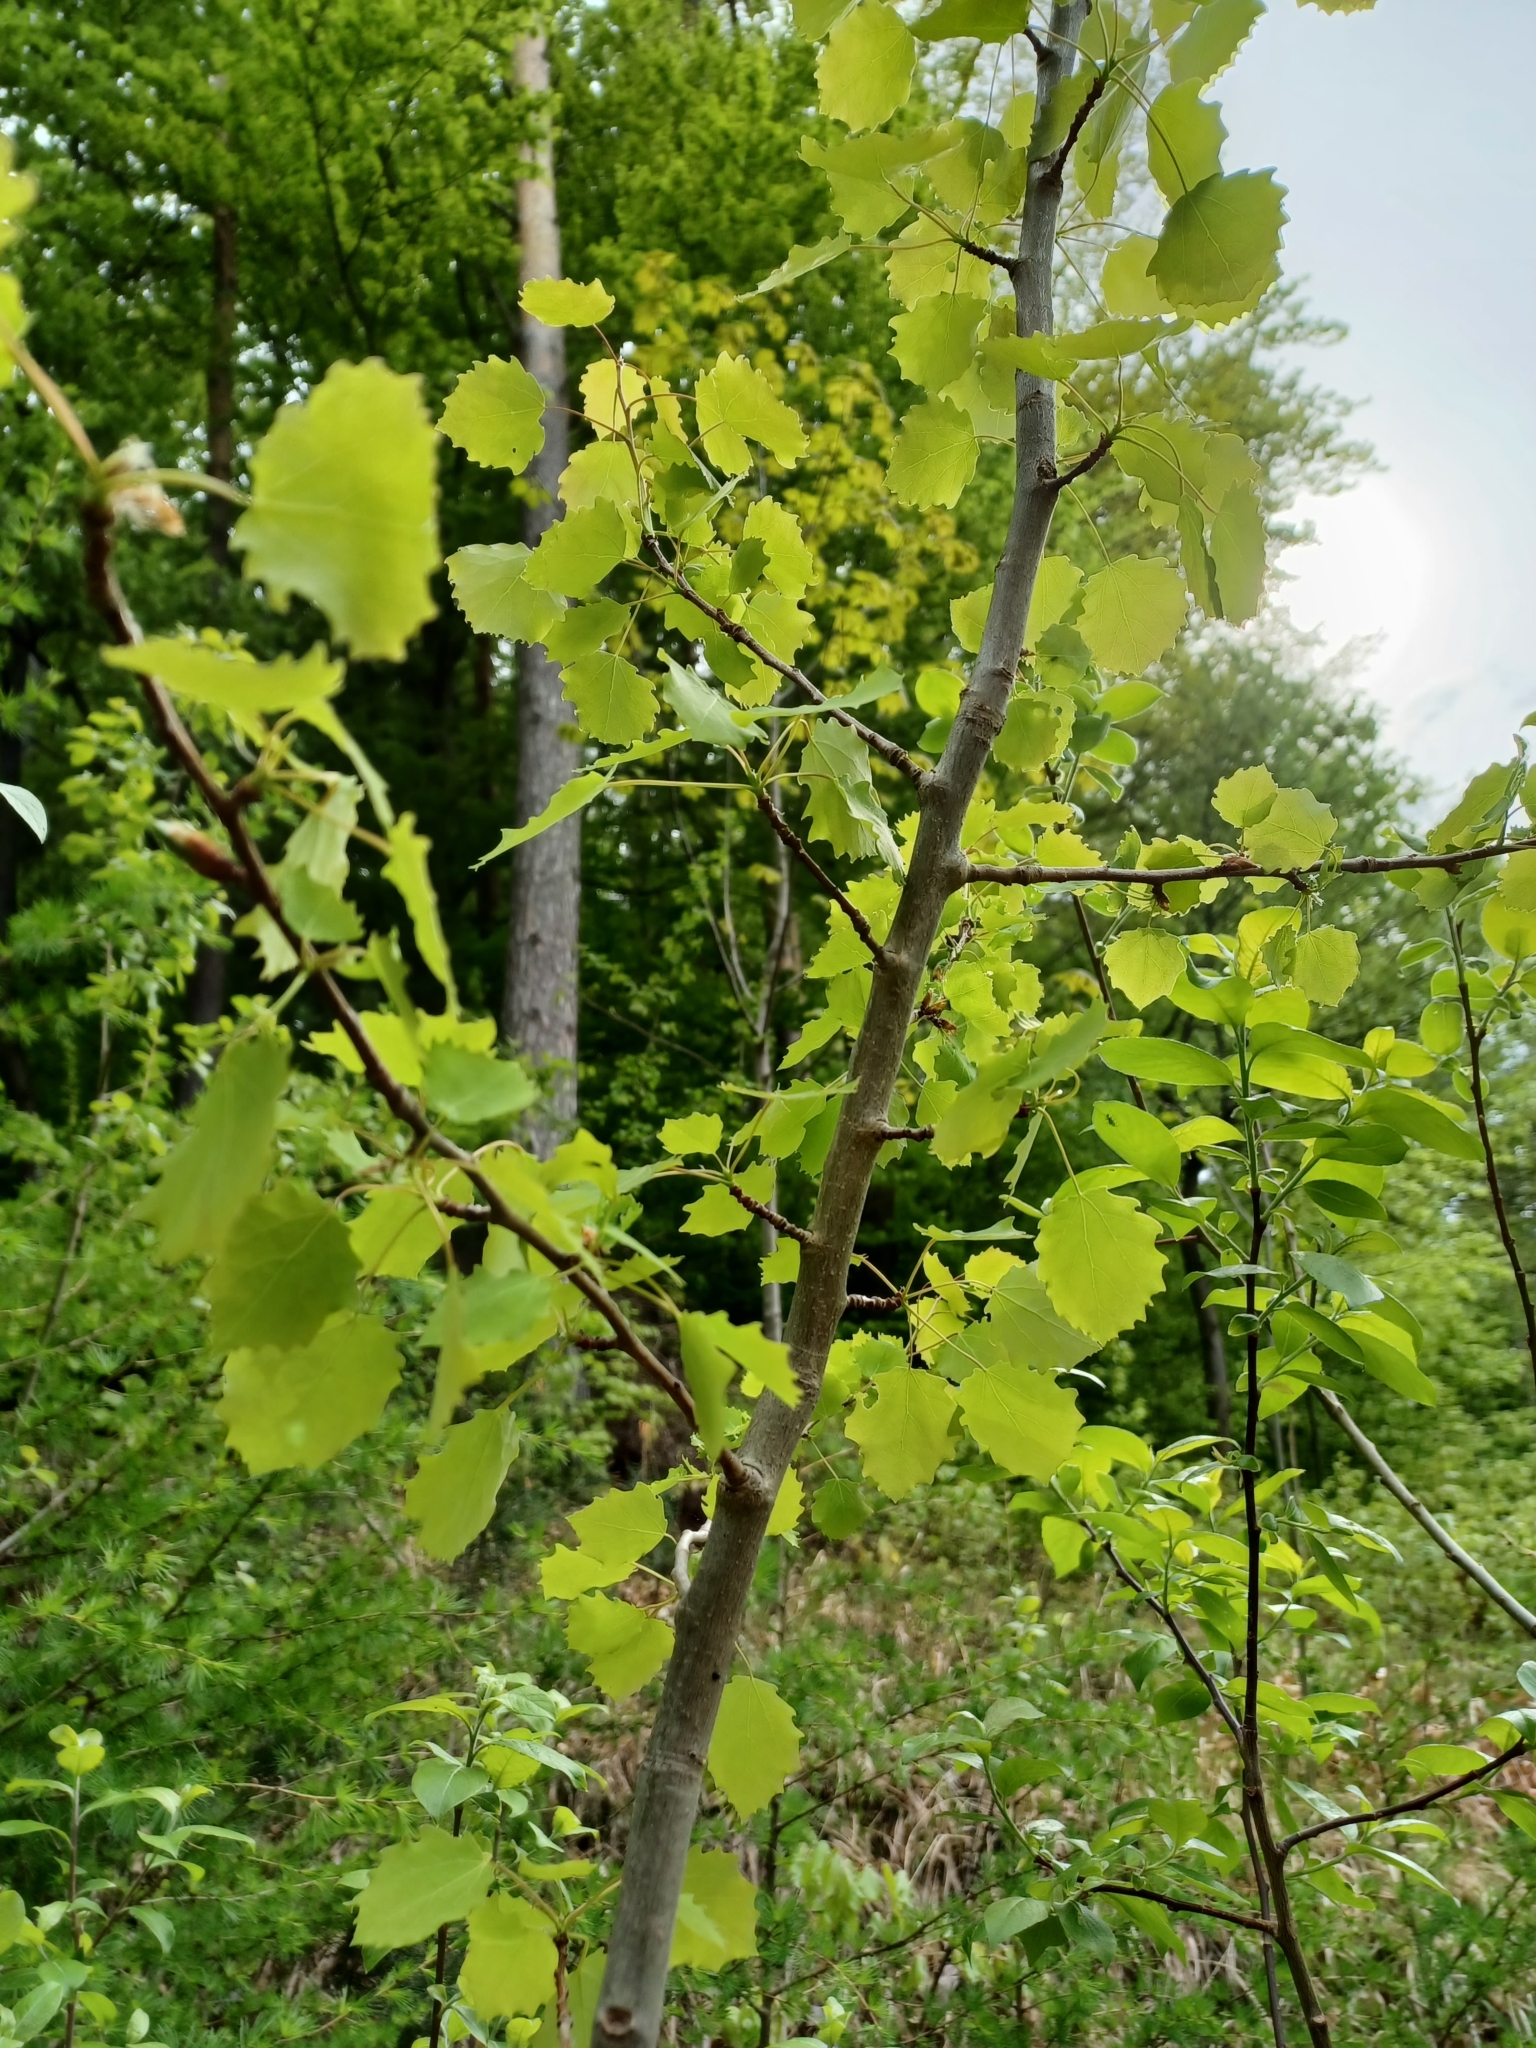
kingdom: Plantae
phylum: Tracheophyta
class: Magnoliopsida
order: Malpighiales
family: Salicaceae
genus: Populus
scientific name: Populus tremula
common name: European aspen
